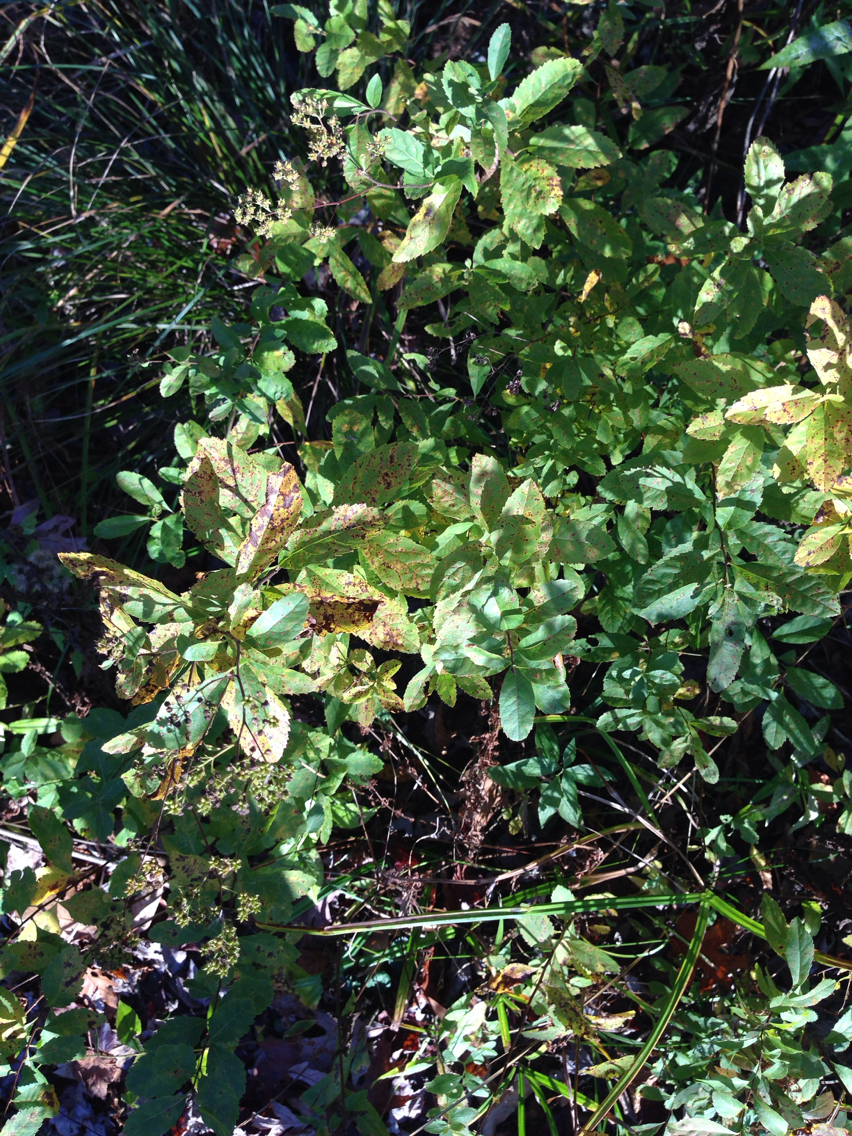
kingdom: Plantae
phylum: Tracheophyta
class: Magnoliopsida
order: Rosales
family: Rosaceae
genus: Spiraea
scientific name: Spiraea alba
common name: Pale bridewort
